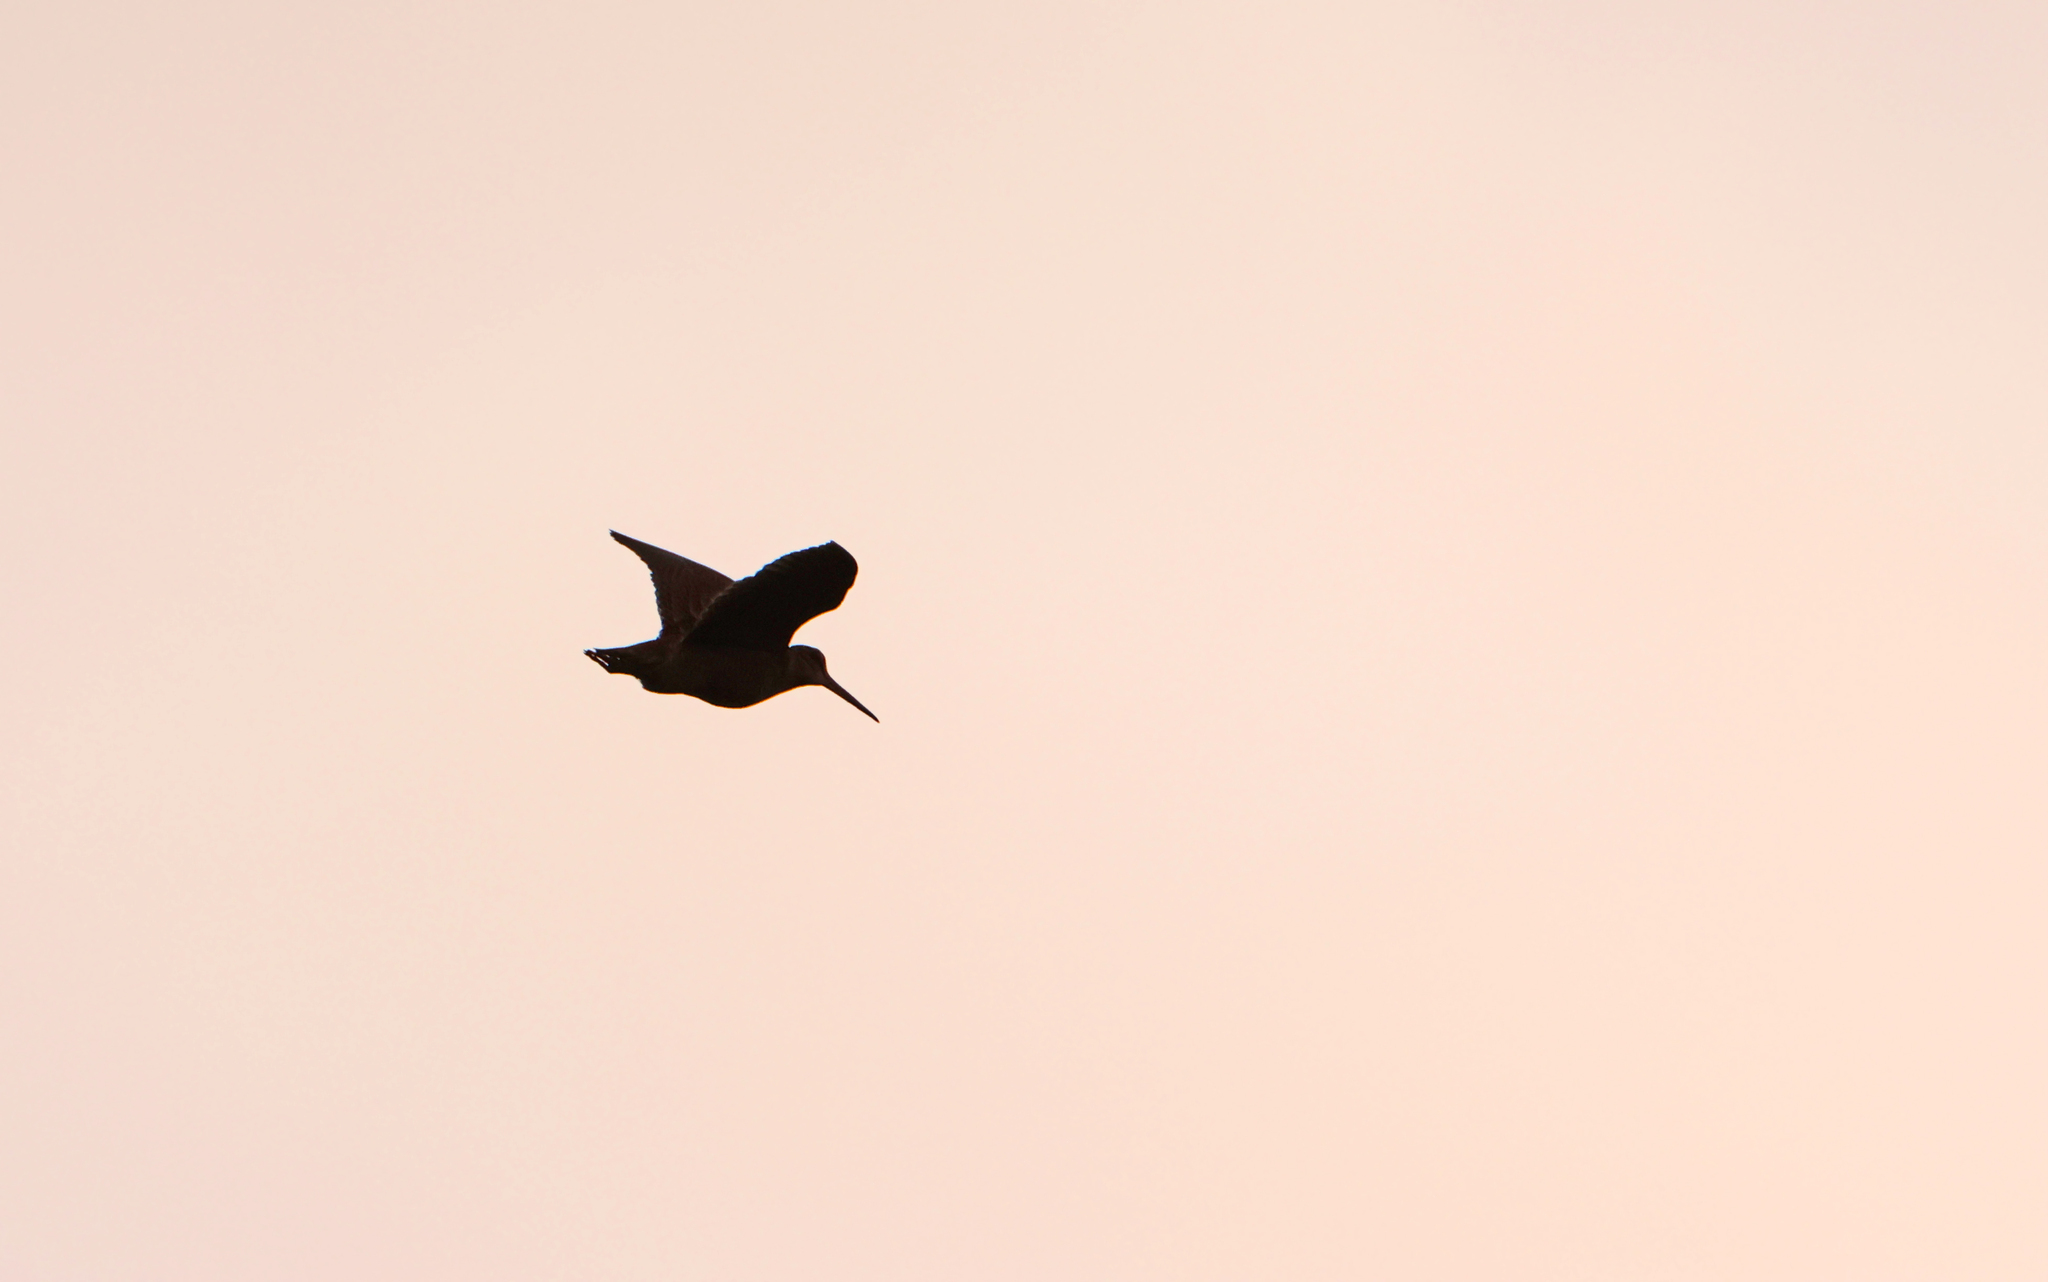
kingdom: Animalia
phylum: Chordata
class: Aves
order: Charadriiformes
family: Scolopacidae
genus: Scolopax
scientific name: Scolopax rusticola
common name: Eurasian woodcock
